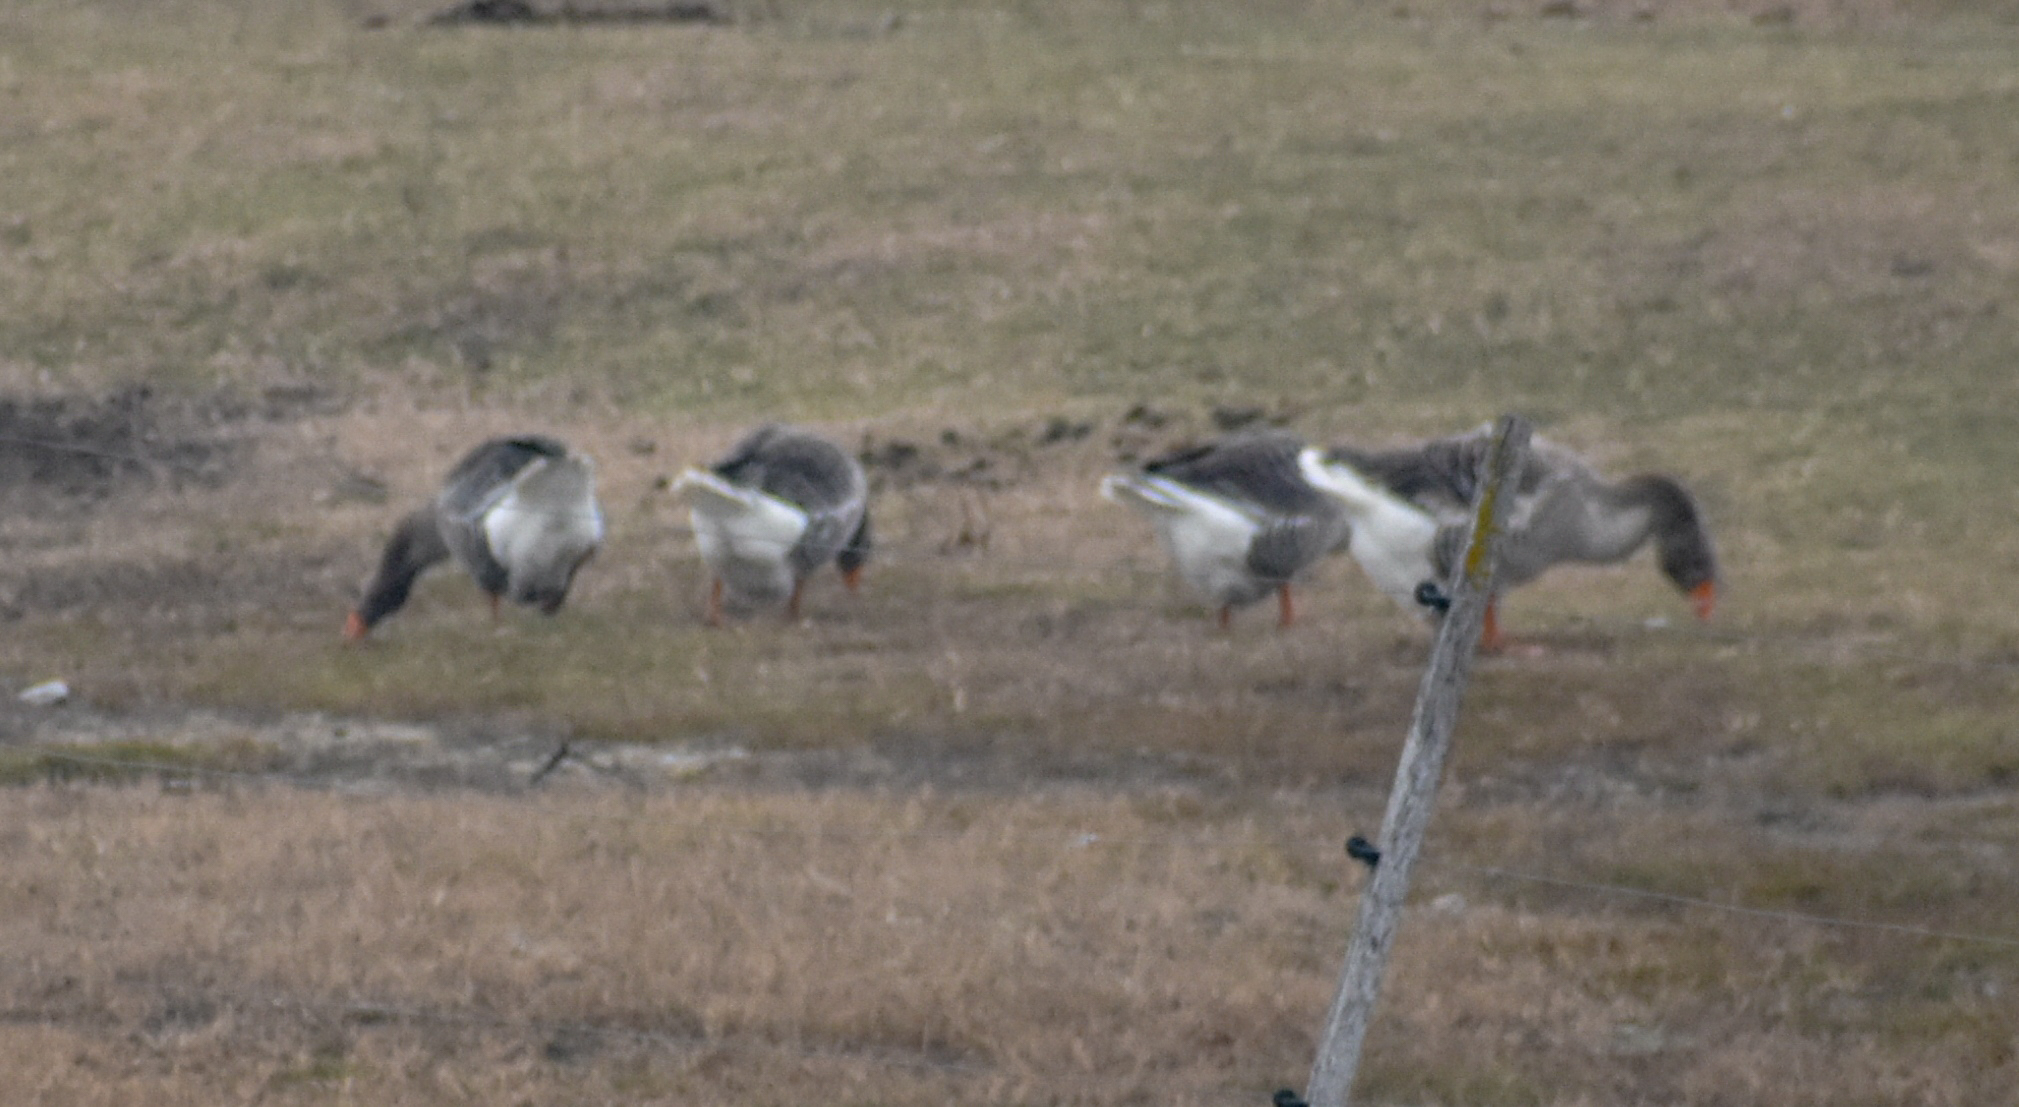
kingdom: Animalia
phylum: Chordata
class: Aves
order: Anseriformes
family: Anatidae
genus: Anser
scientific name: Anser anser
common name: Greylag goose
